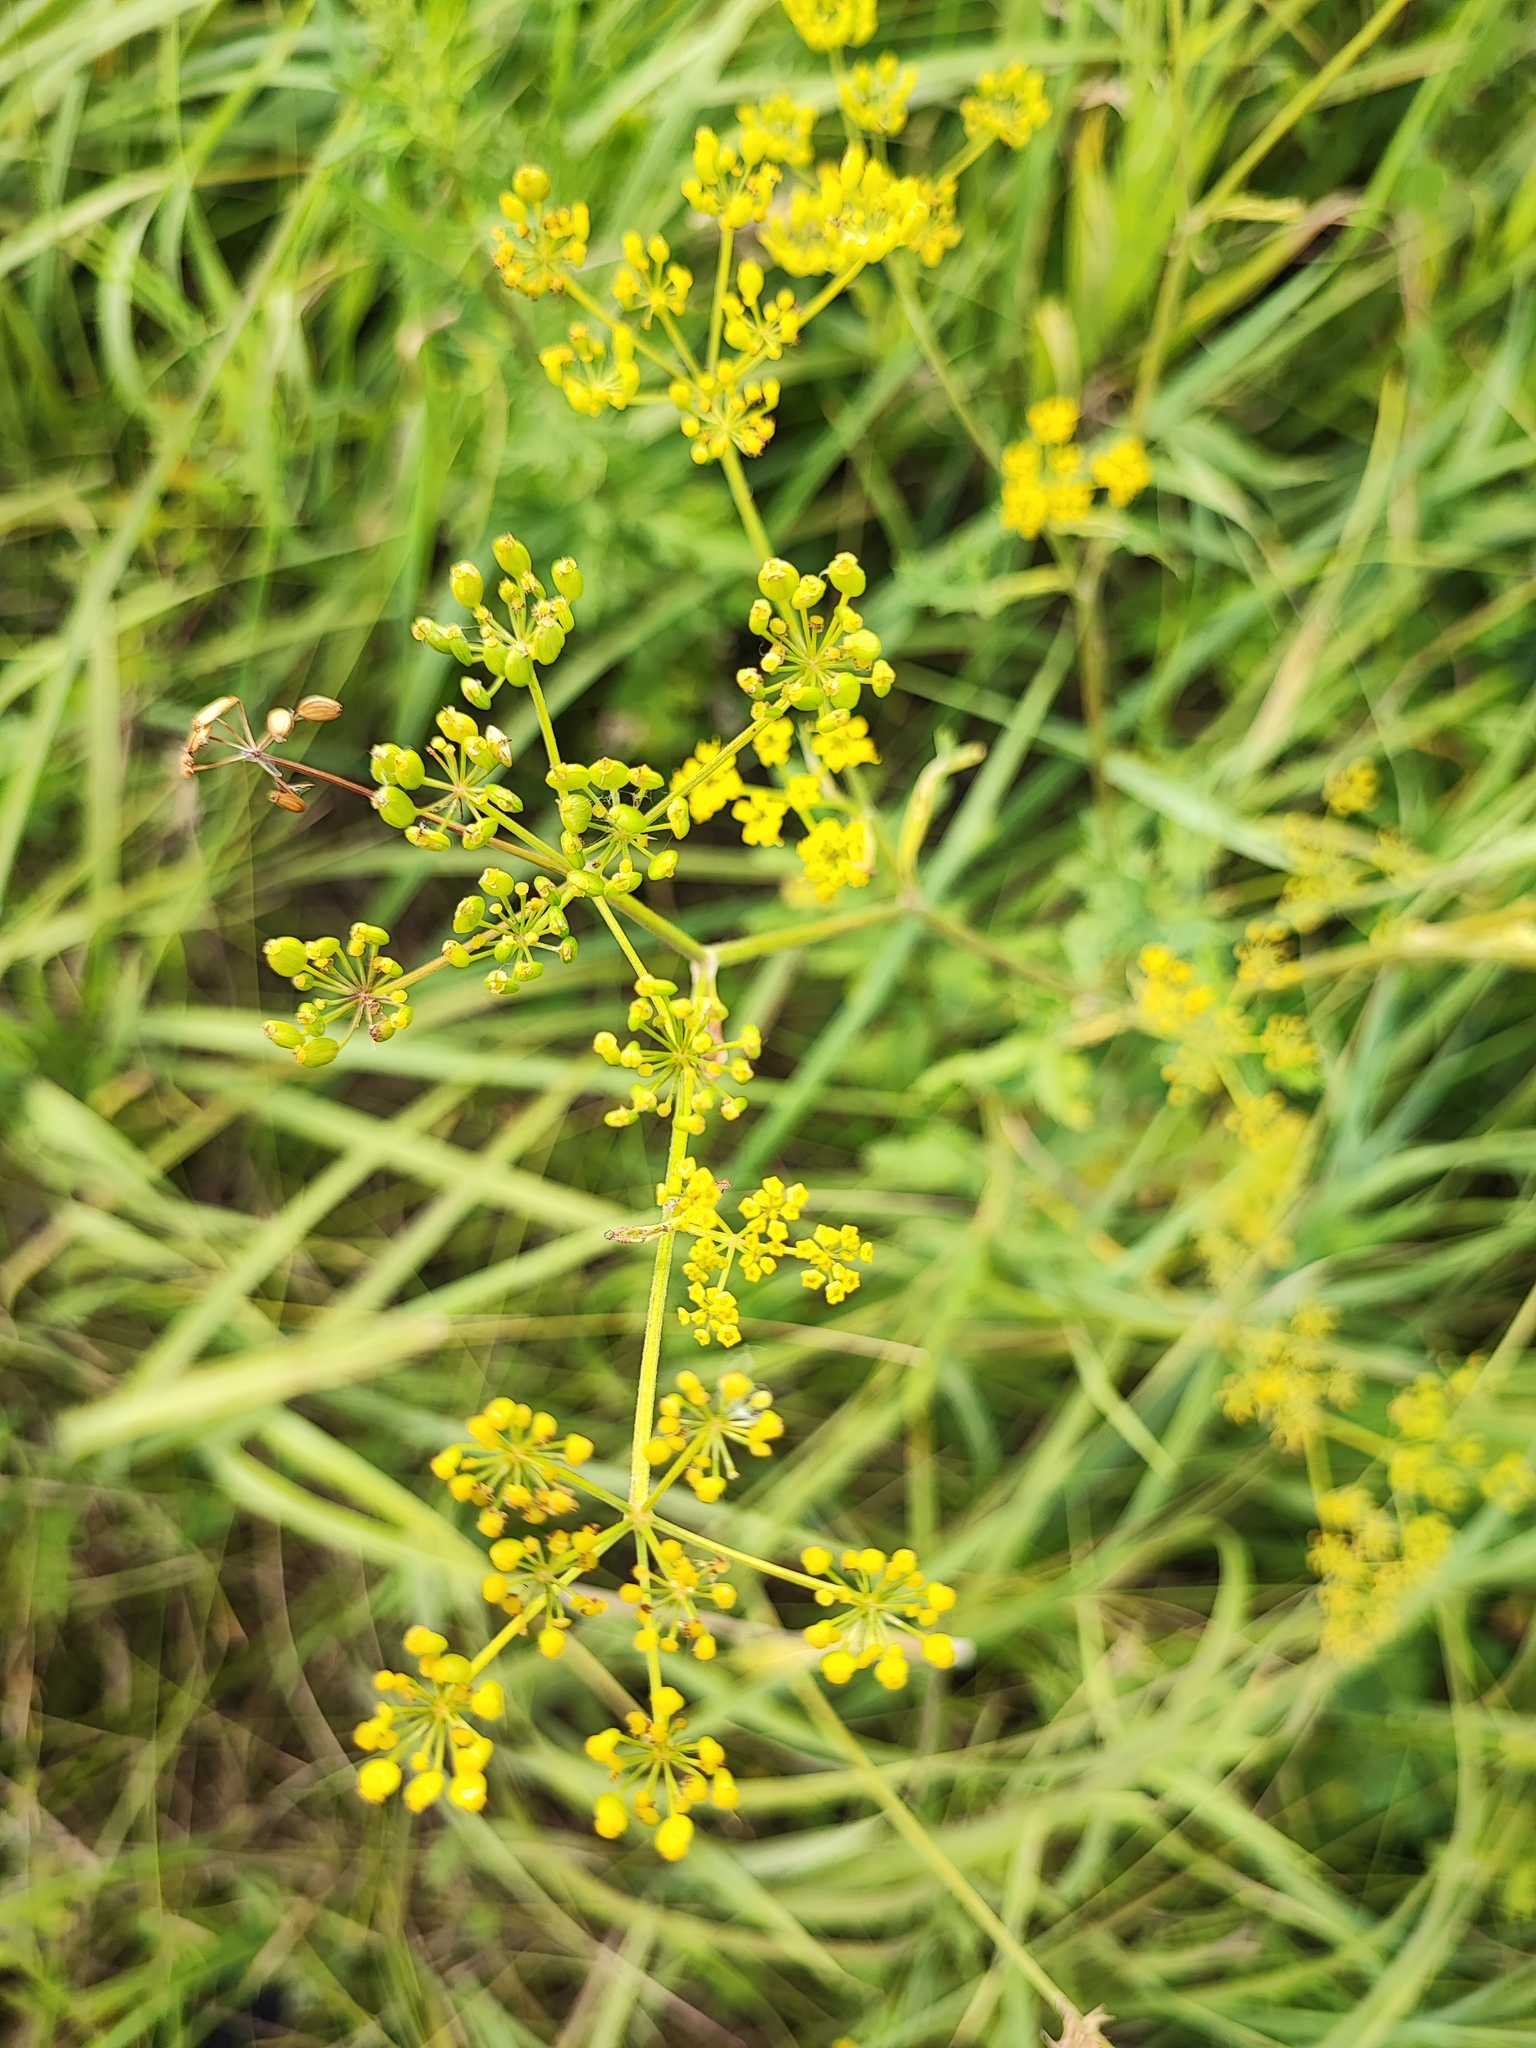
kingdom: Plantae
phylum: Tracheophyta
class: Magnoliopsida
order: Apiales
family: Apiaceae
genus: Pastinaca
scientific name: Pastinaca sativa
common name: Wild parsnip
